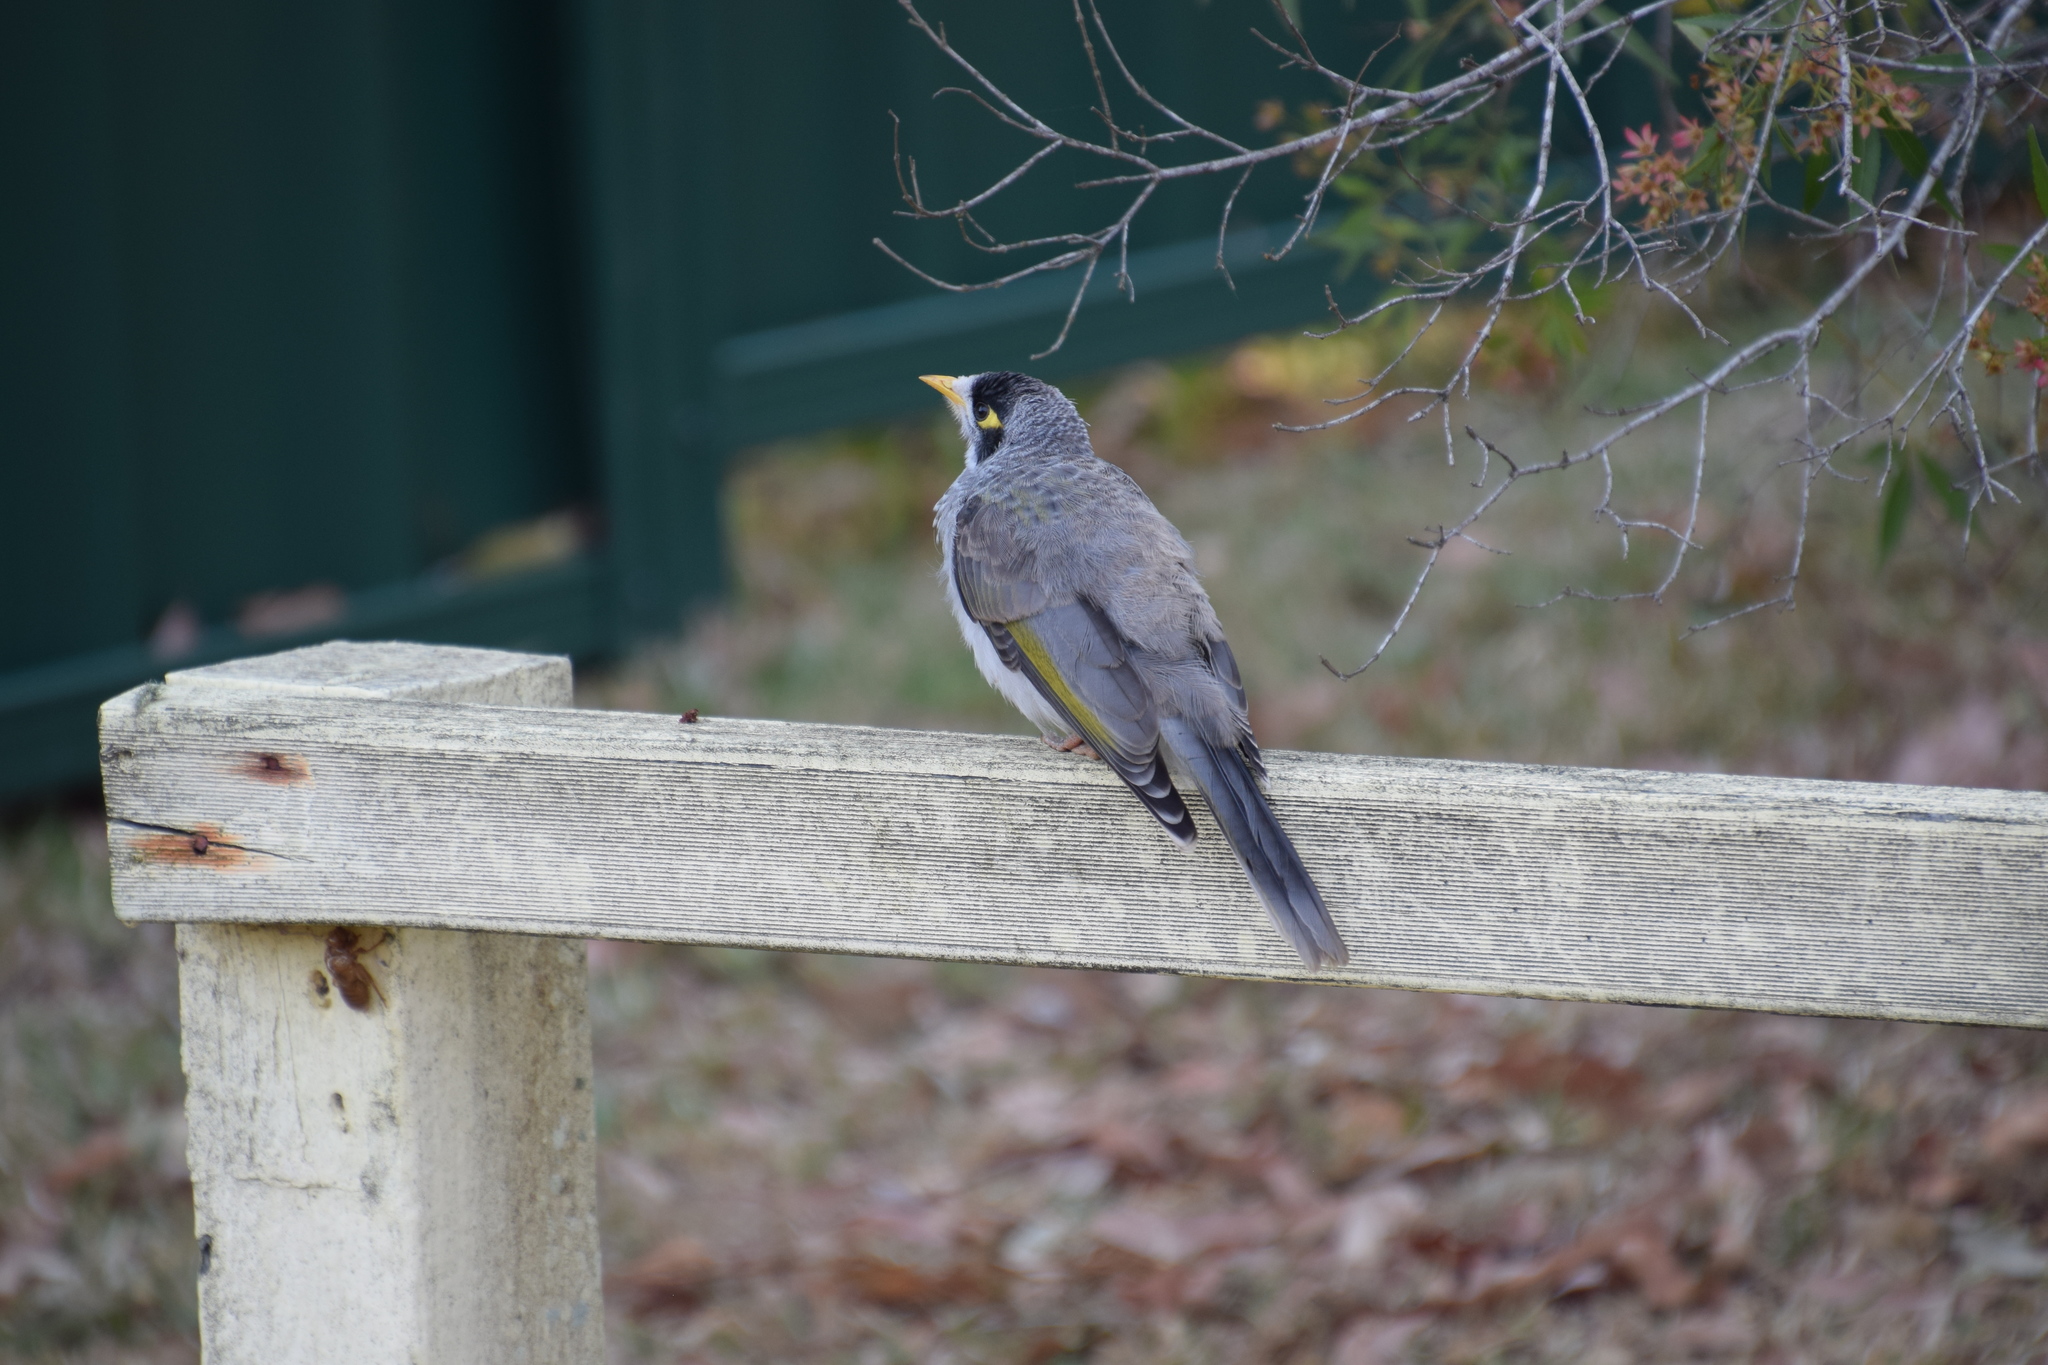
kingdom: Animalia
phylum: Chordata
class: Aves
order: Passeriformes
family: Meliphagidae
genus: Manorina
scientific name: Manorina melanocephala
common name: Noisy miner
